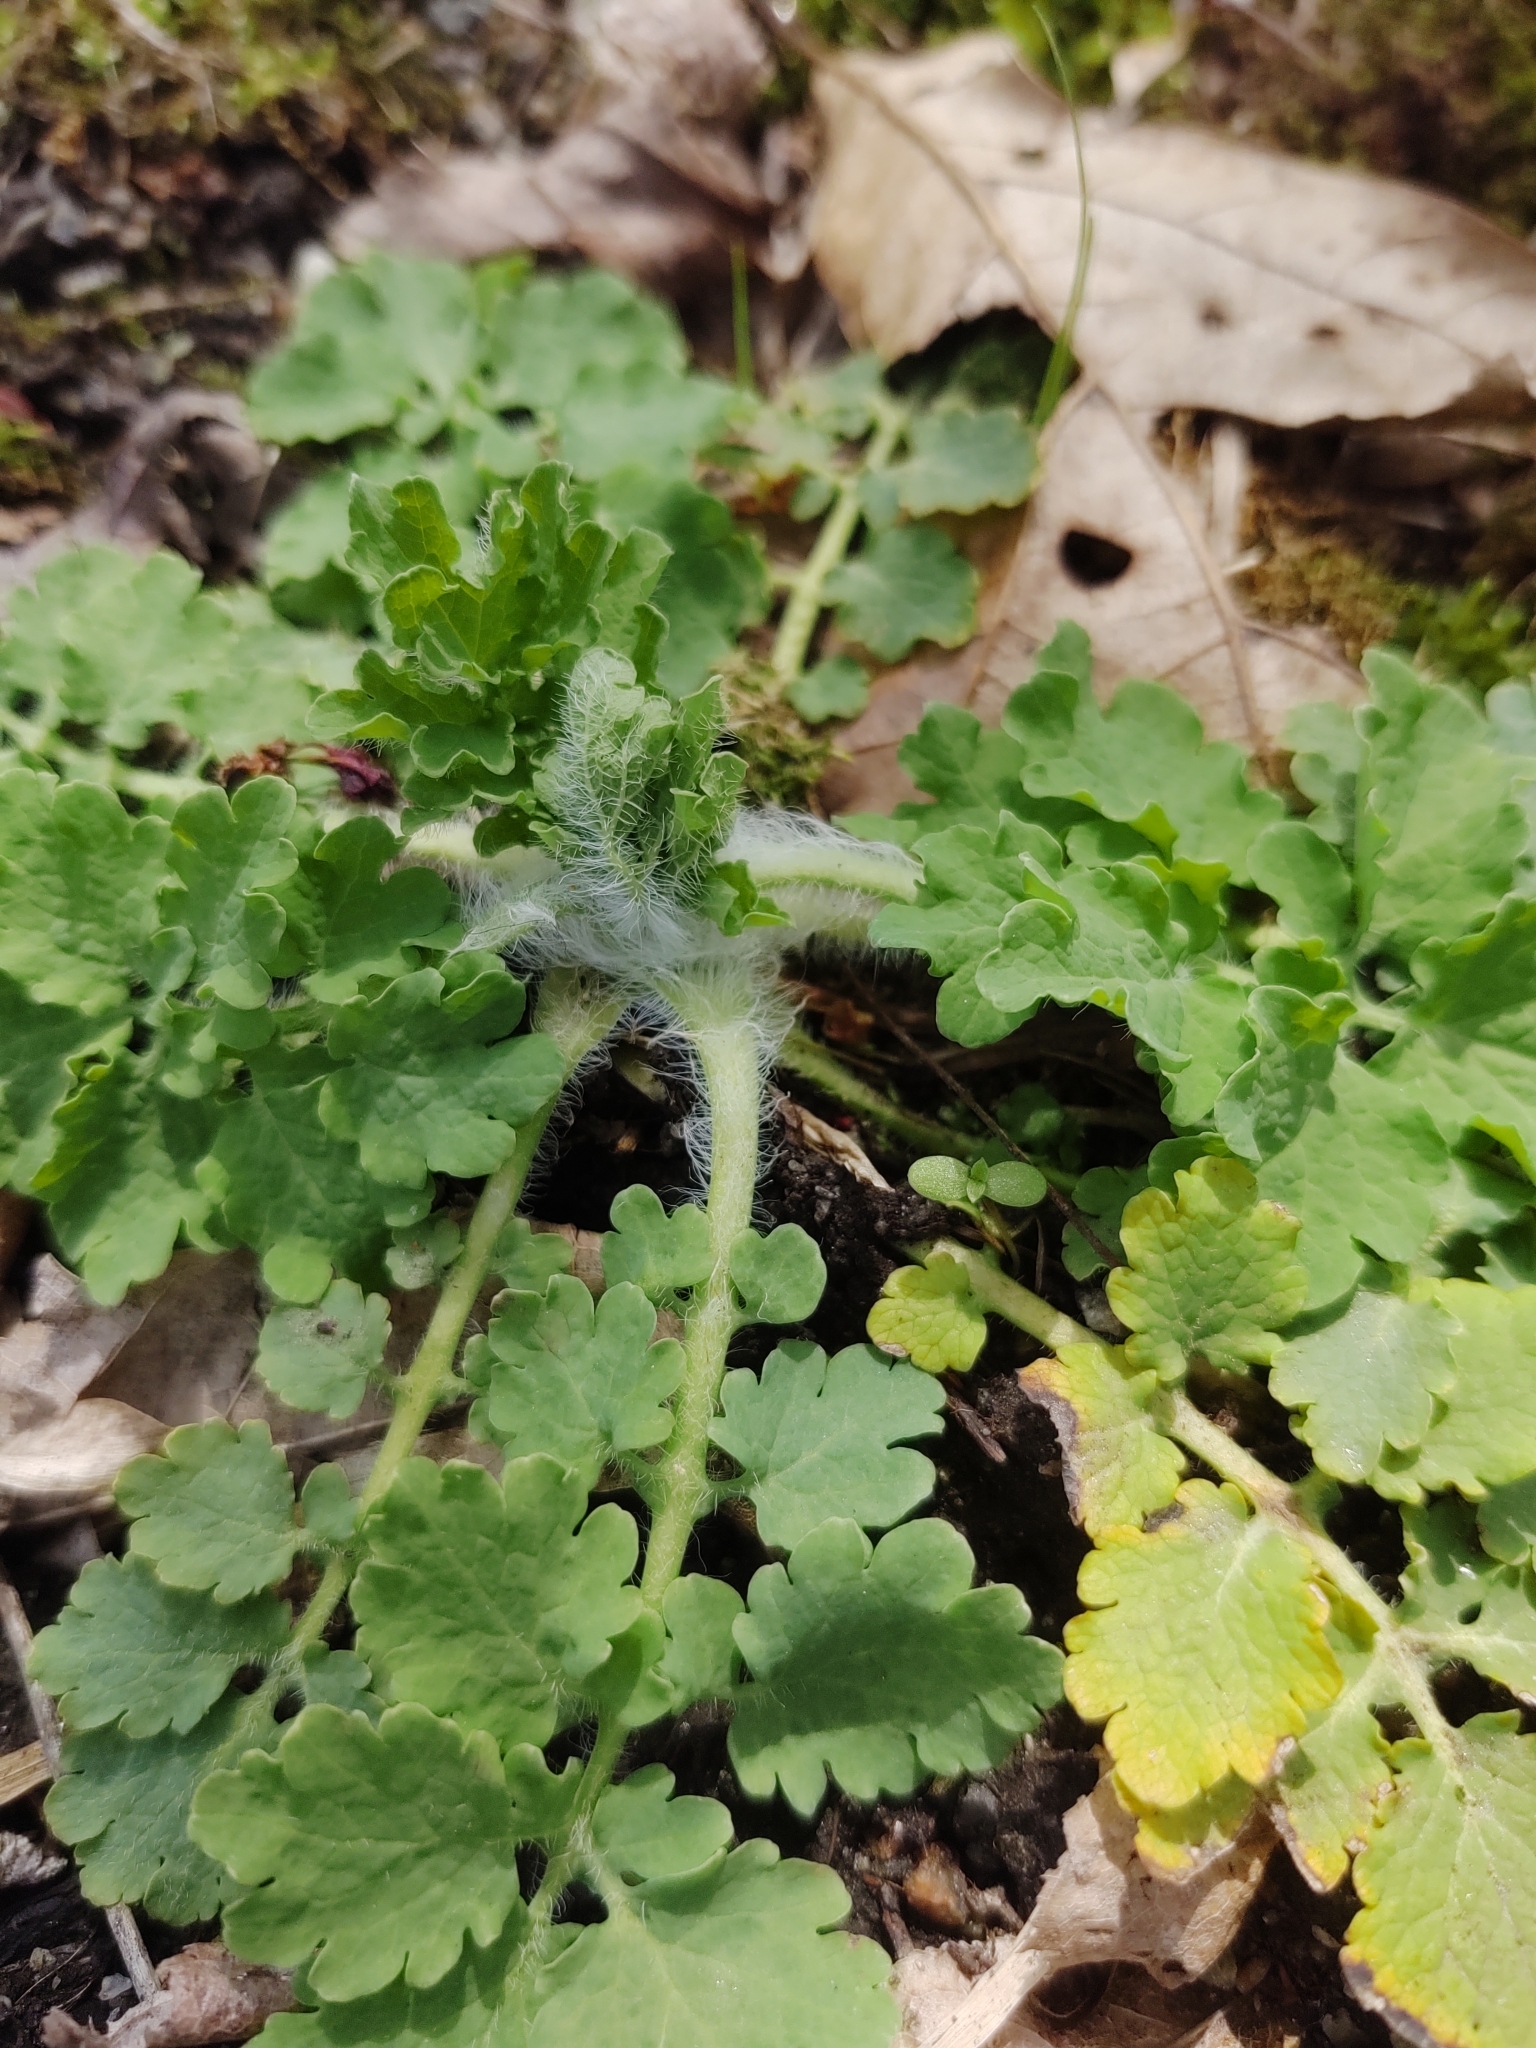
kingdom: Plantae
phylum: Tracheophyta
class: Magnoliopsida
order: Ranunculales
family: Papaveraceae
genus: Chelidonium
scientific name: Chelidonium majus
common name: Greater celandine
